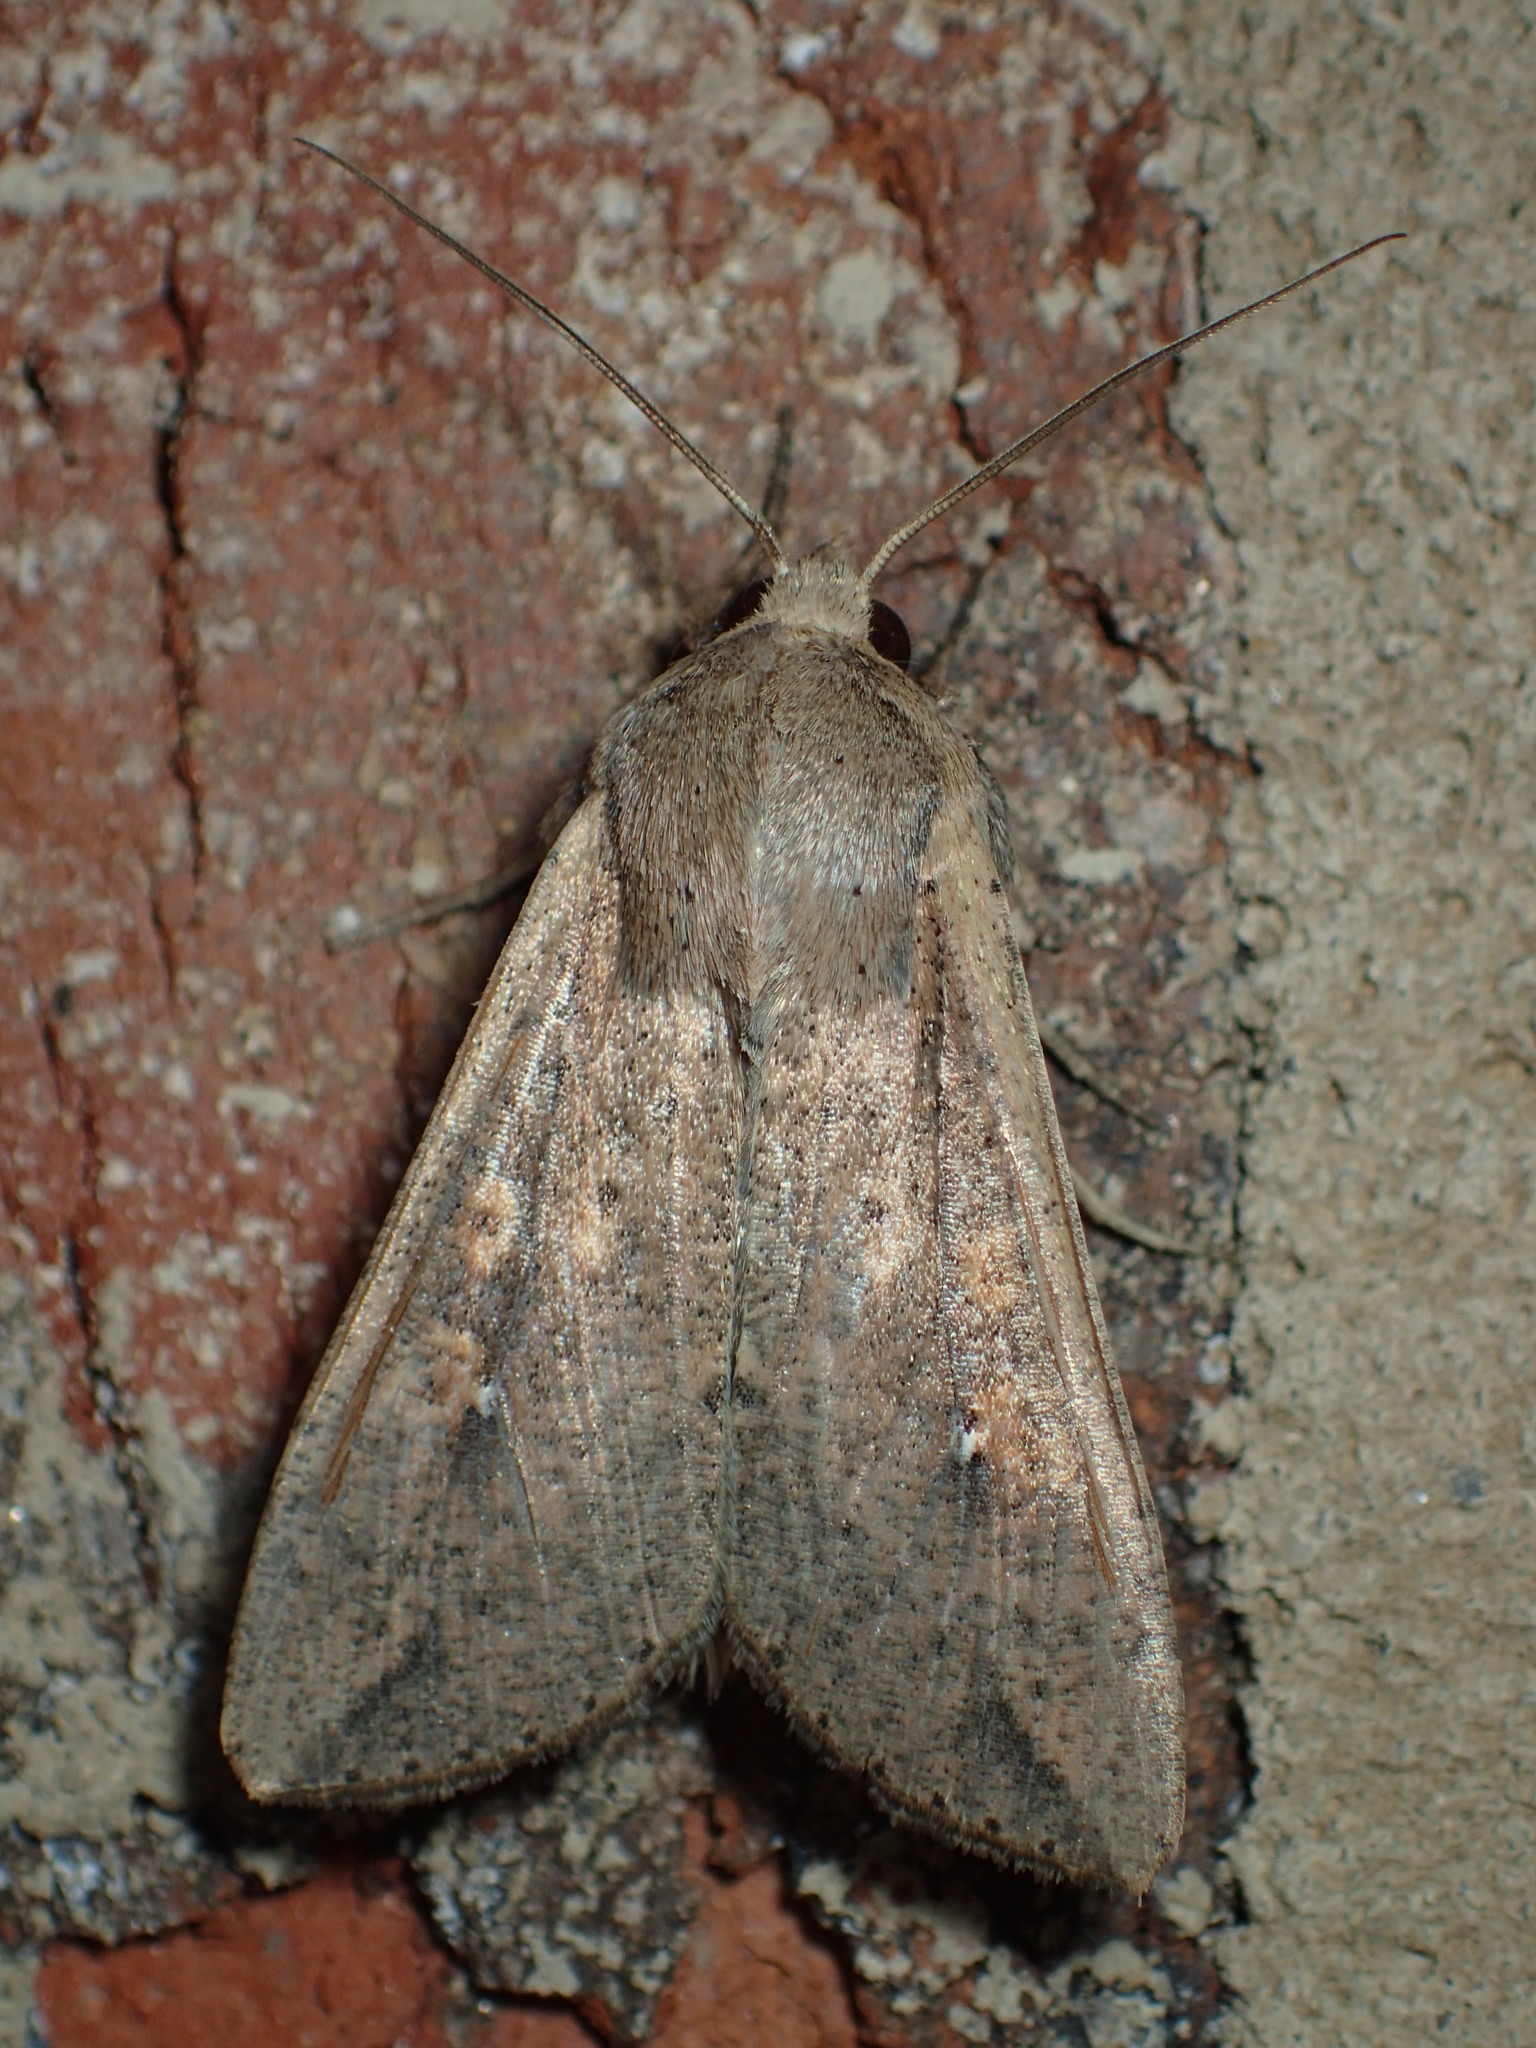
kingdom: Animalia
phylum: Arthropoda
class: Insecta
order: Lepidoptera
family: Noctuidae
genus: Mythimna
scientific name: Mythimna unipuncta
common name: White-speck
